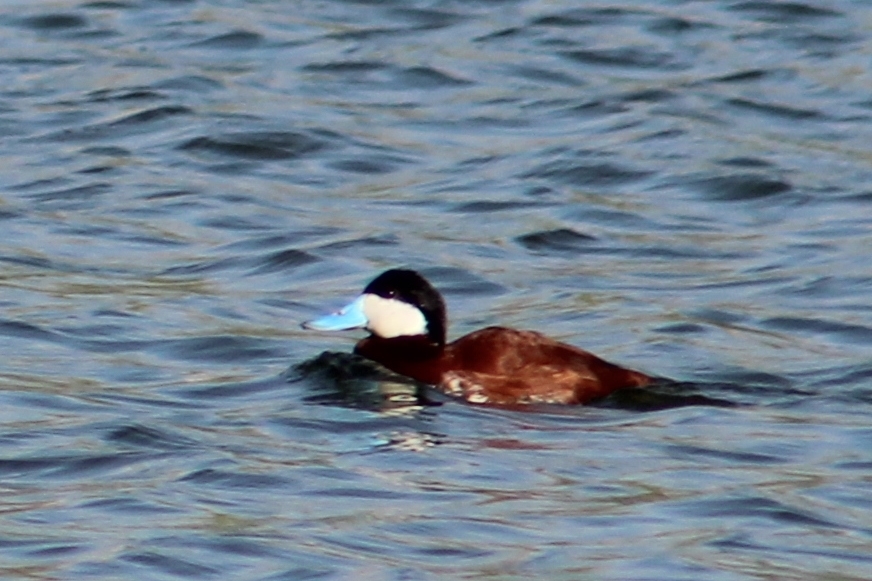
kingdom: Animalia
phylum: Chordata
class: Aves
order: Anseriformes
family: Anatidae
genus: Oxyura
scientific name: Oxyura jamaicensis
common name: Ruddy duck
